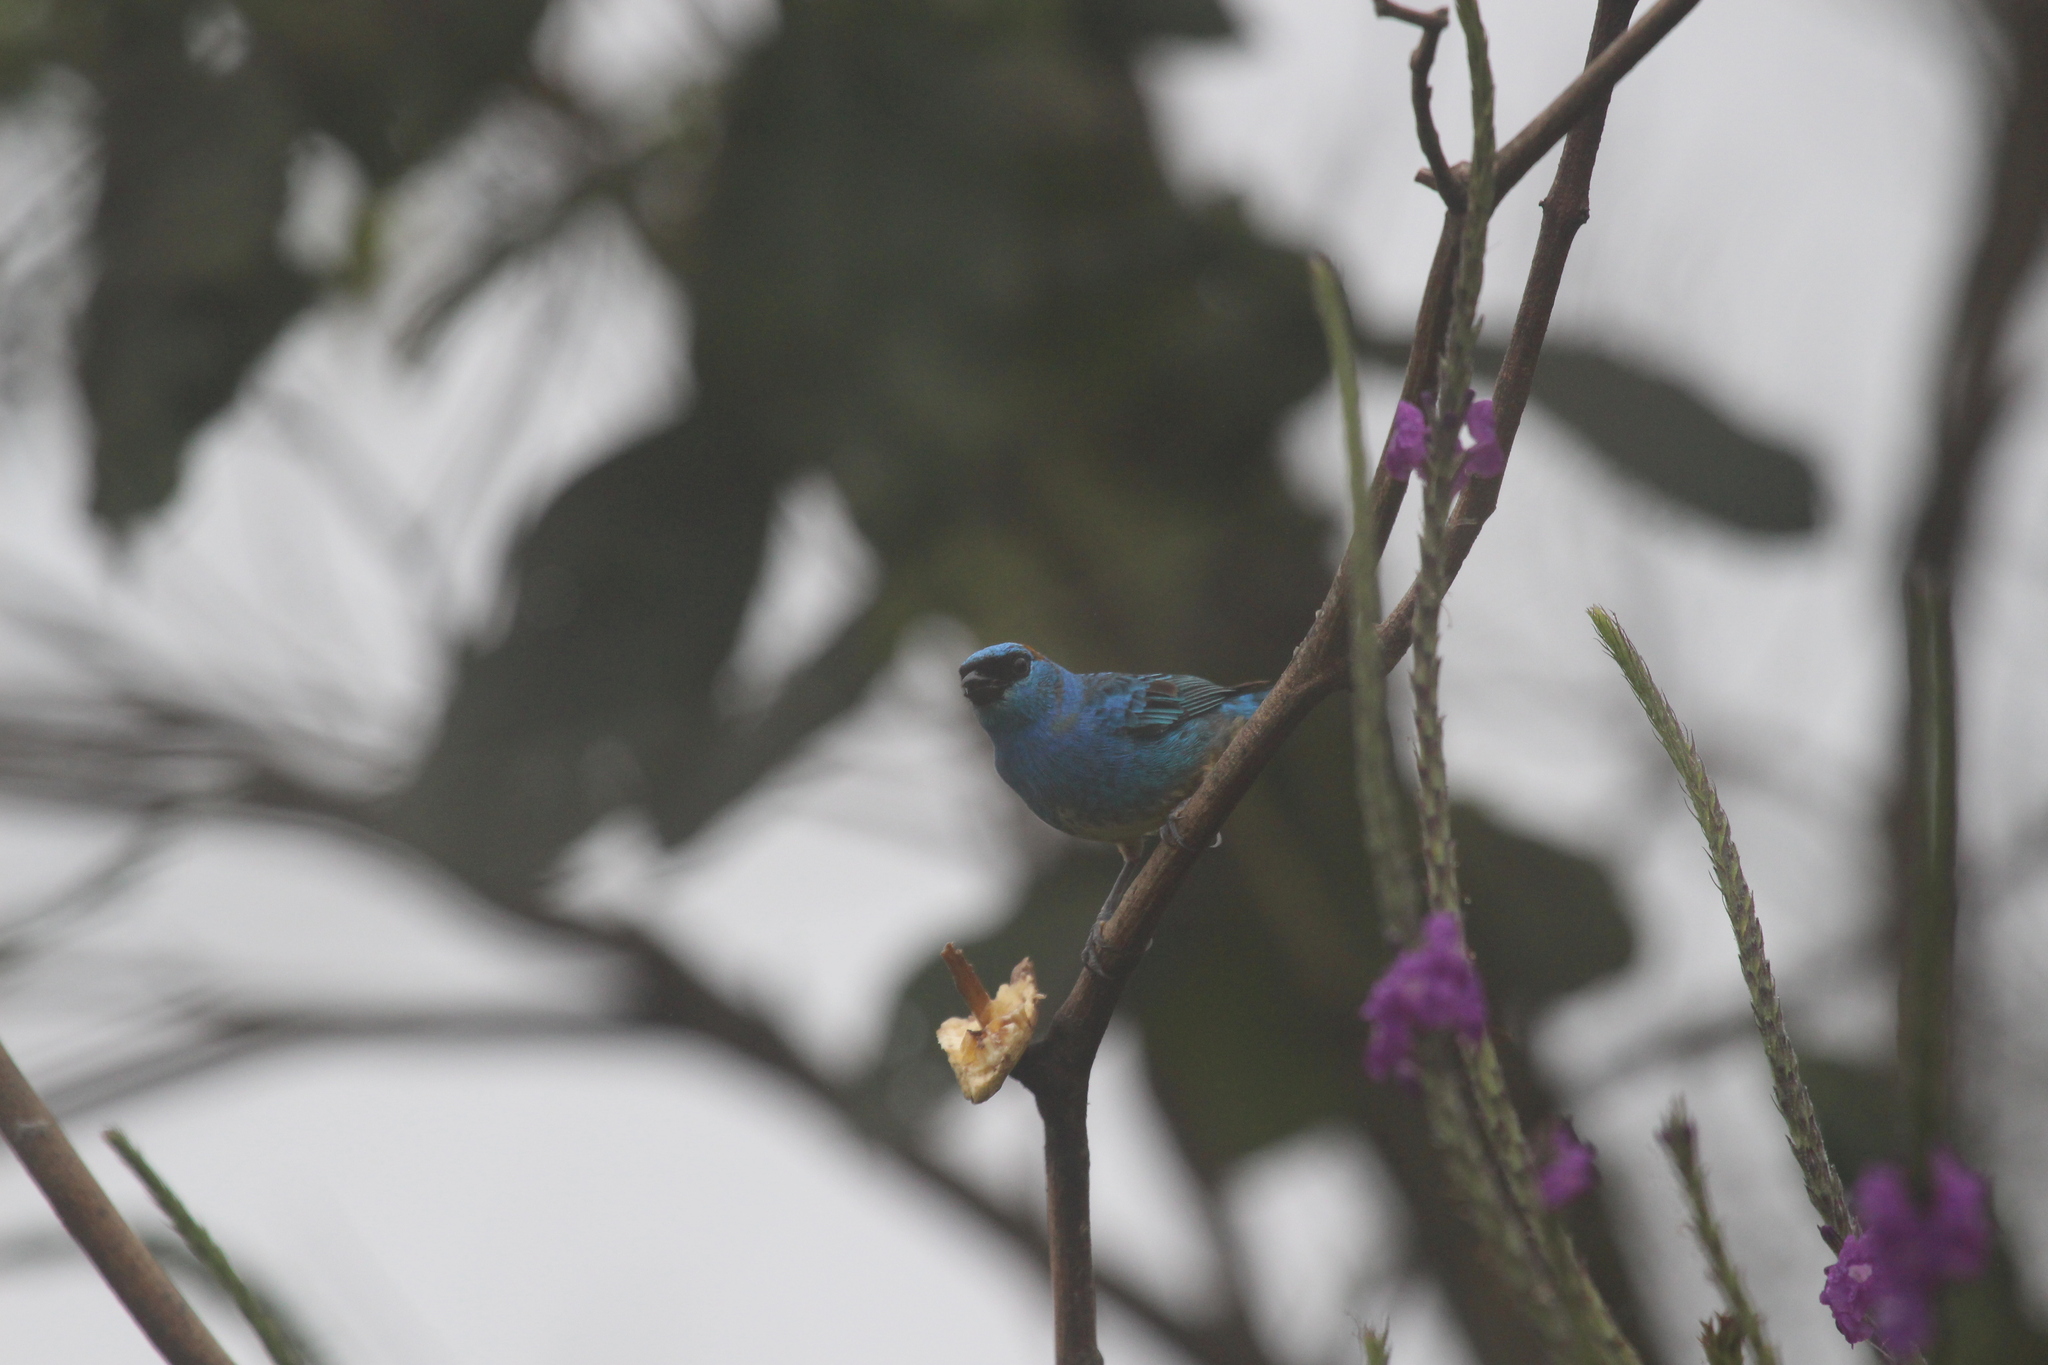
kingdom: Animalia
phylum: Chordata
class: Aves
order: Passeriformes
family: Thraupidae
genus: Chalcothraupis
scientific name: Chalcothraupis ruficervix
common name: Golden-naped tanager
